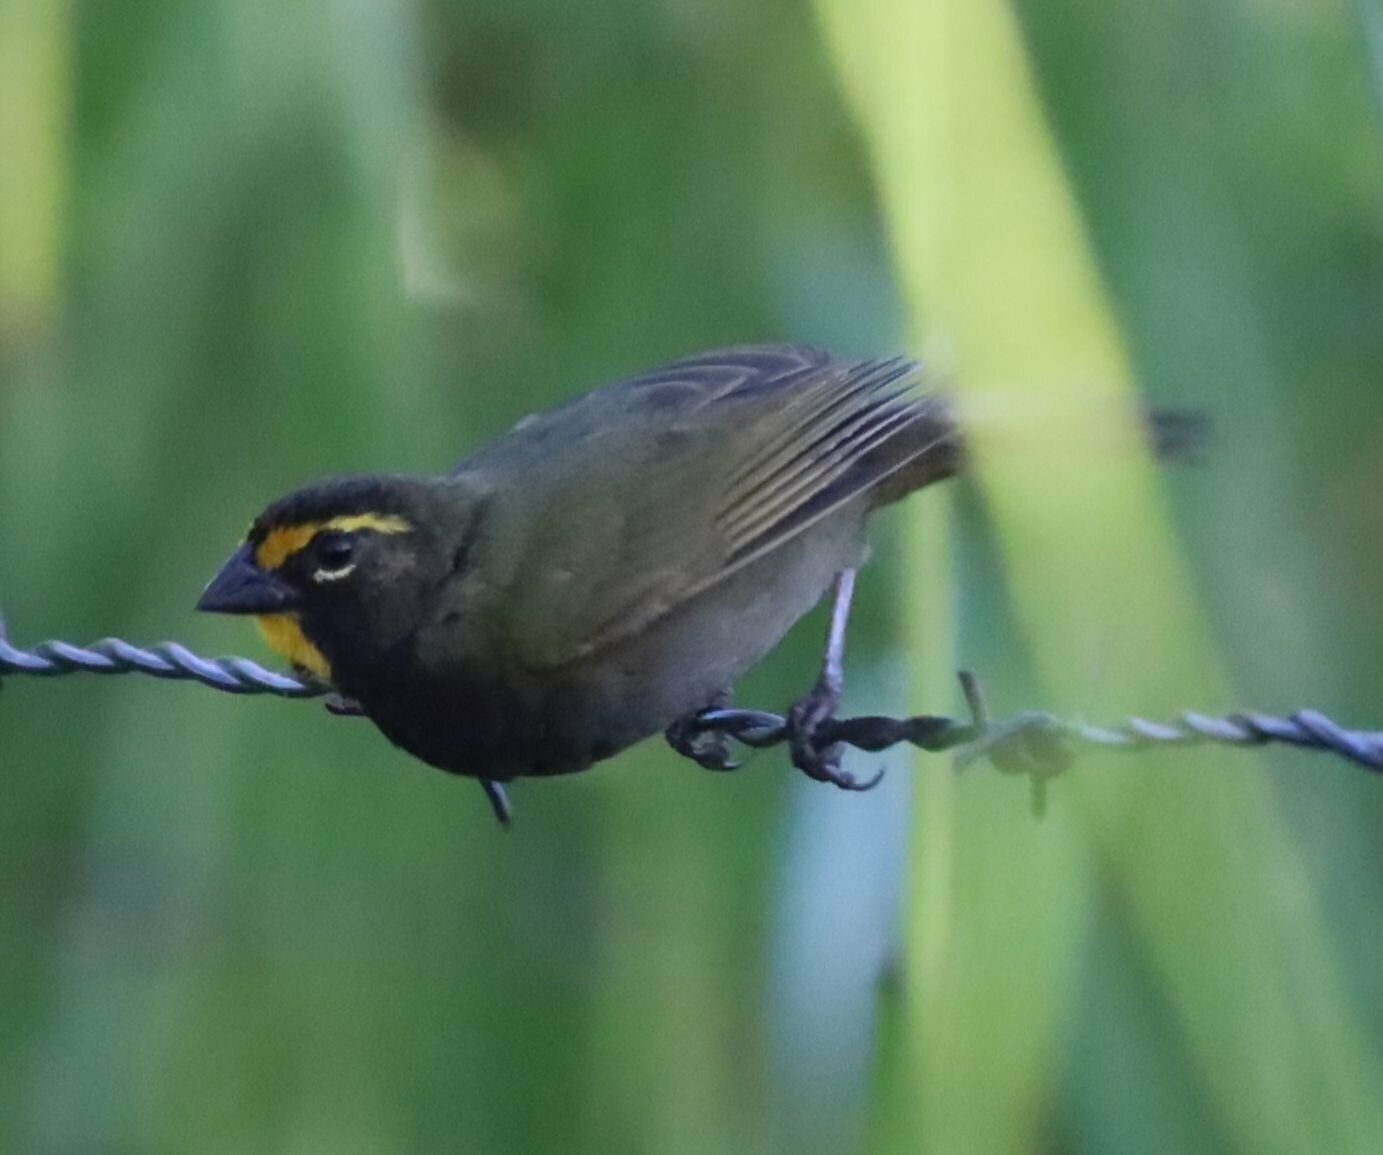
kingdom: Animalia
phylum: Chordata
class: Aves
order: Passeriformes
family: Thraupidae
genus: Tiaris
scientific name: Tiaris olivaceus
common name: Yellow-faced grassquit
